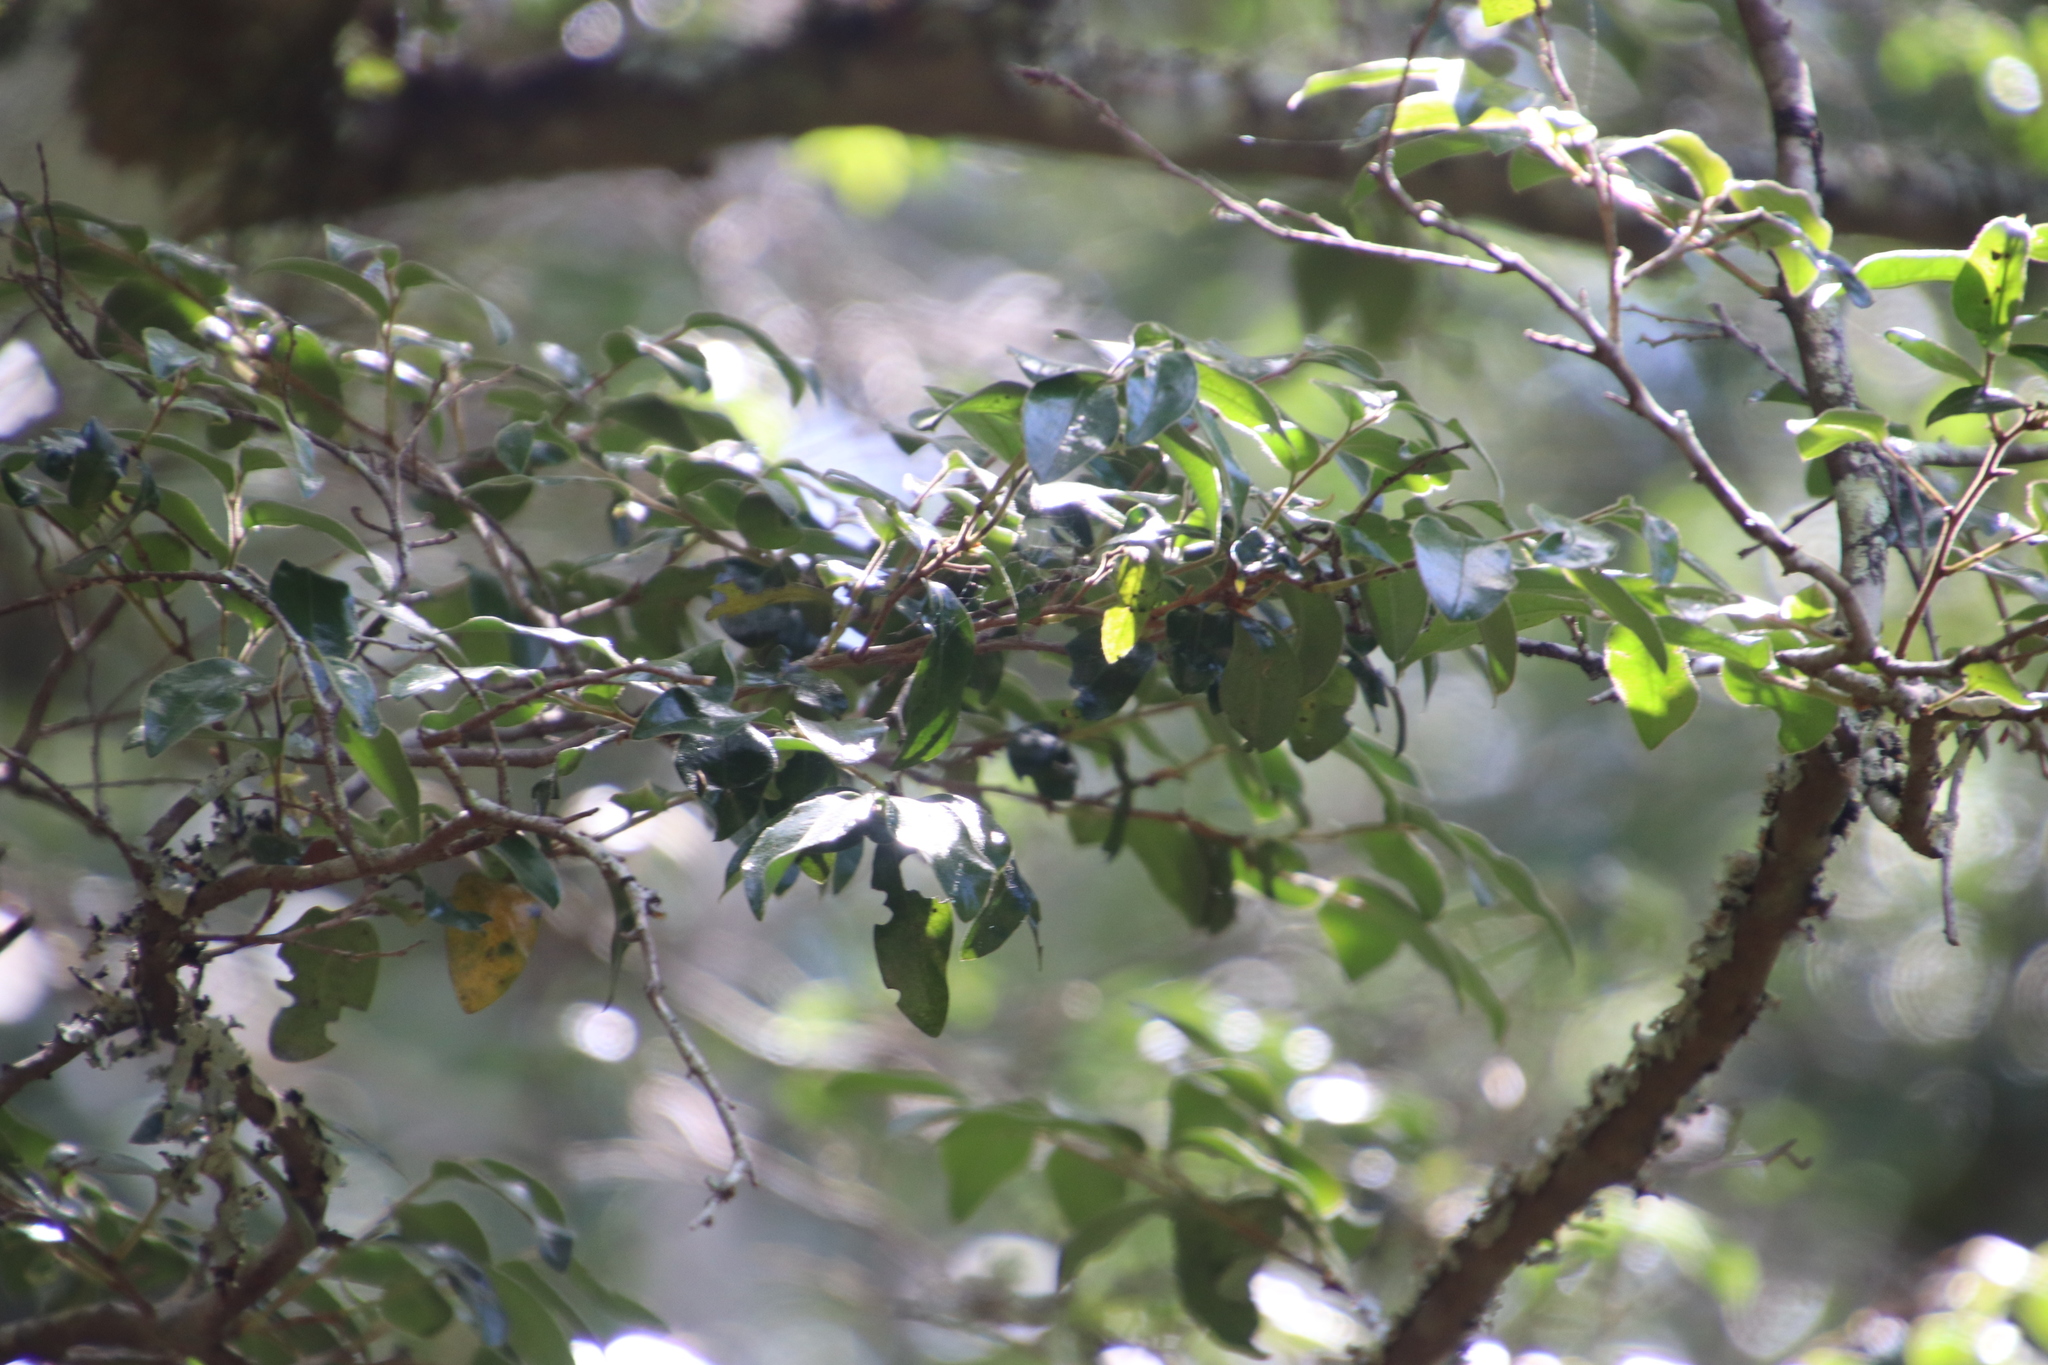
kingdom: Plantae
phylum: Tracheophyta
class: Magnoliopsida
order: Ericales
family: Ebenaceae
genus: Diospyros
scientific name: Diospyros whyteana
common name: Bladder-nut
